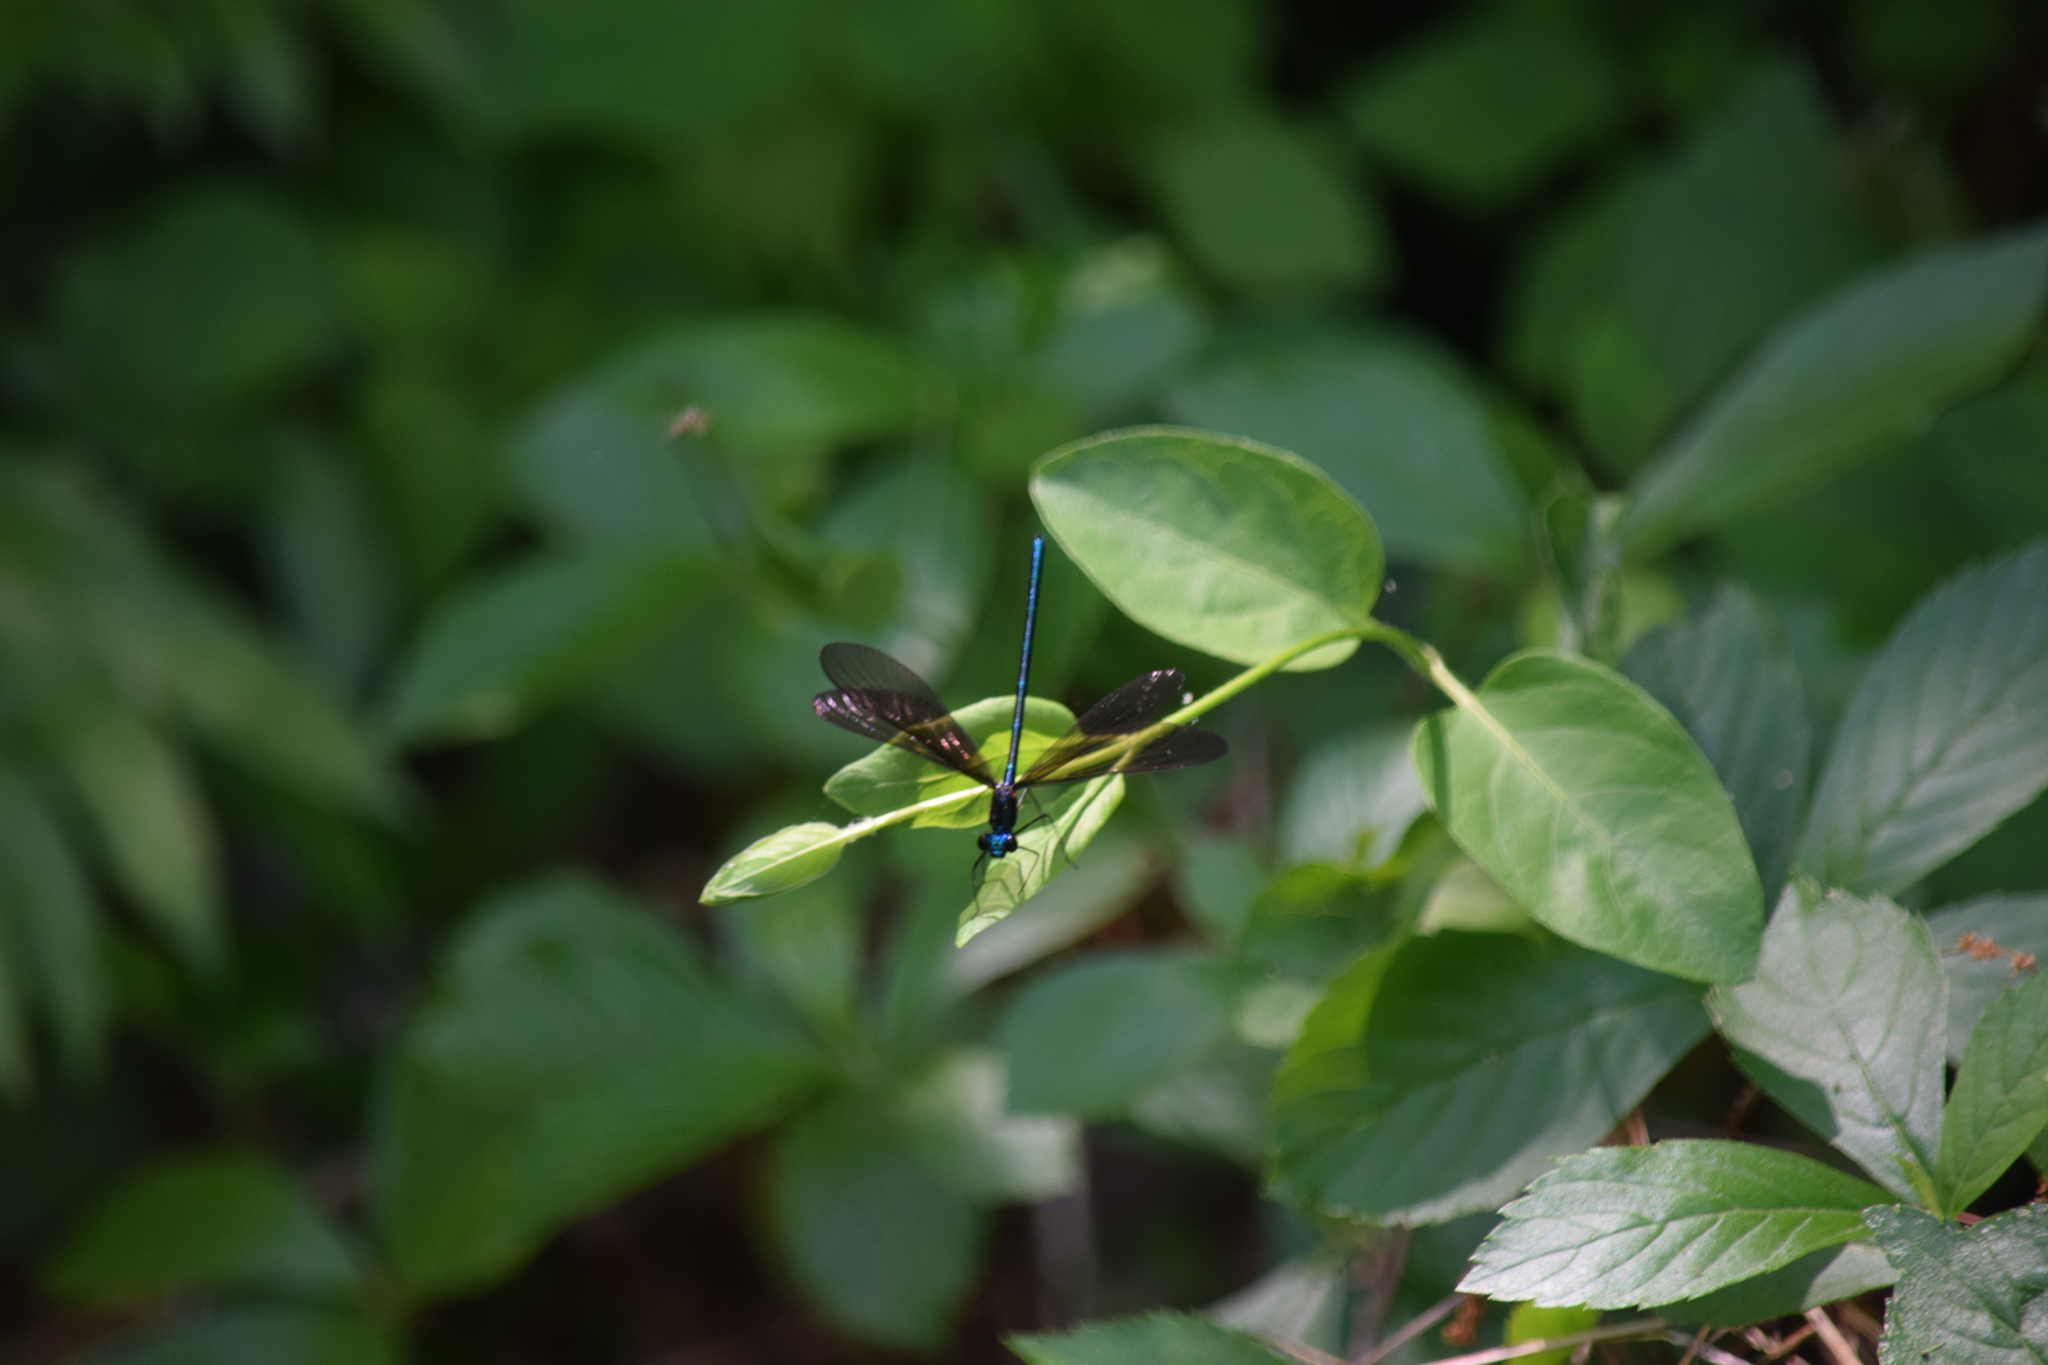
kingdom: Animalia
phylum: Arthropoda
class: Insecta
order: Odonata
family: Calopterygidae
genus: Calopteryx
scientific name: Calopteryx maculata
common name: Ebony jewelwing
